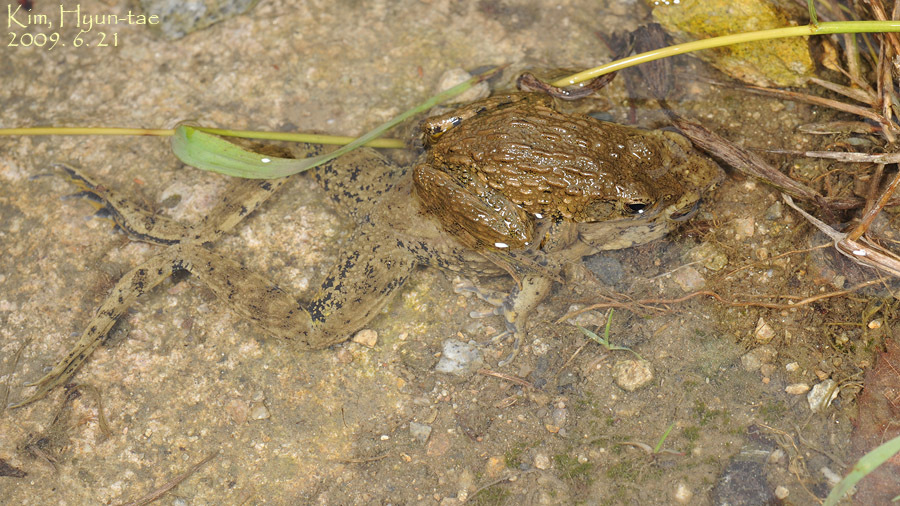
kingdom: Animalia
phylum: Chordata
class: Amphibia
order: Anura
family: Ranidae
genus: Glandirana
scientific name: Glandirana emeljanovi
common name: Northeast china rough-skinned frog
